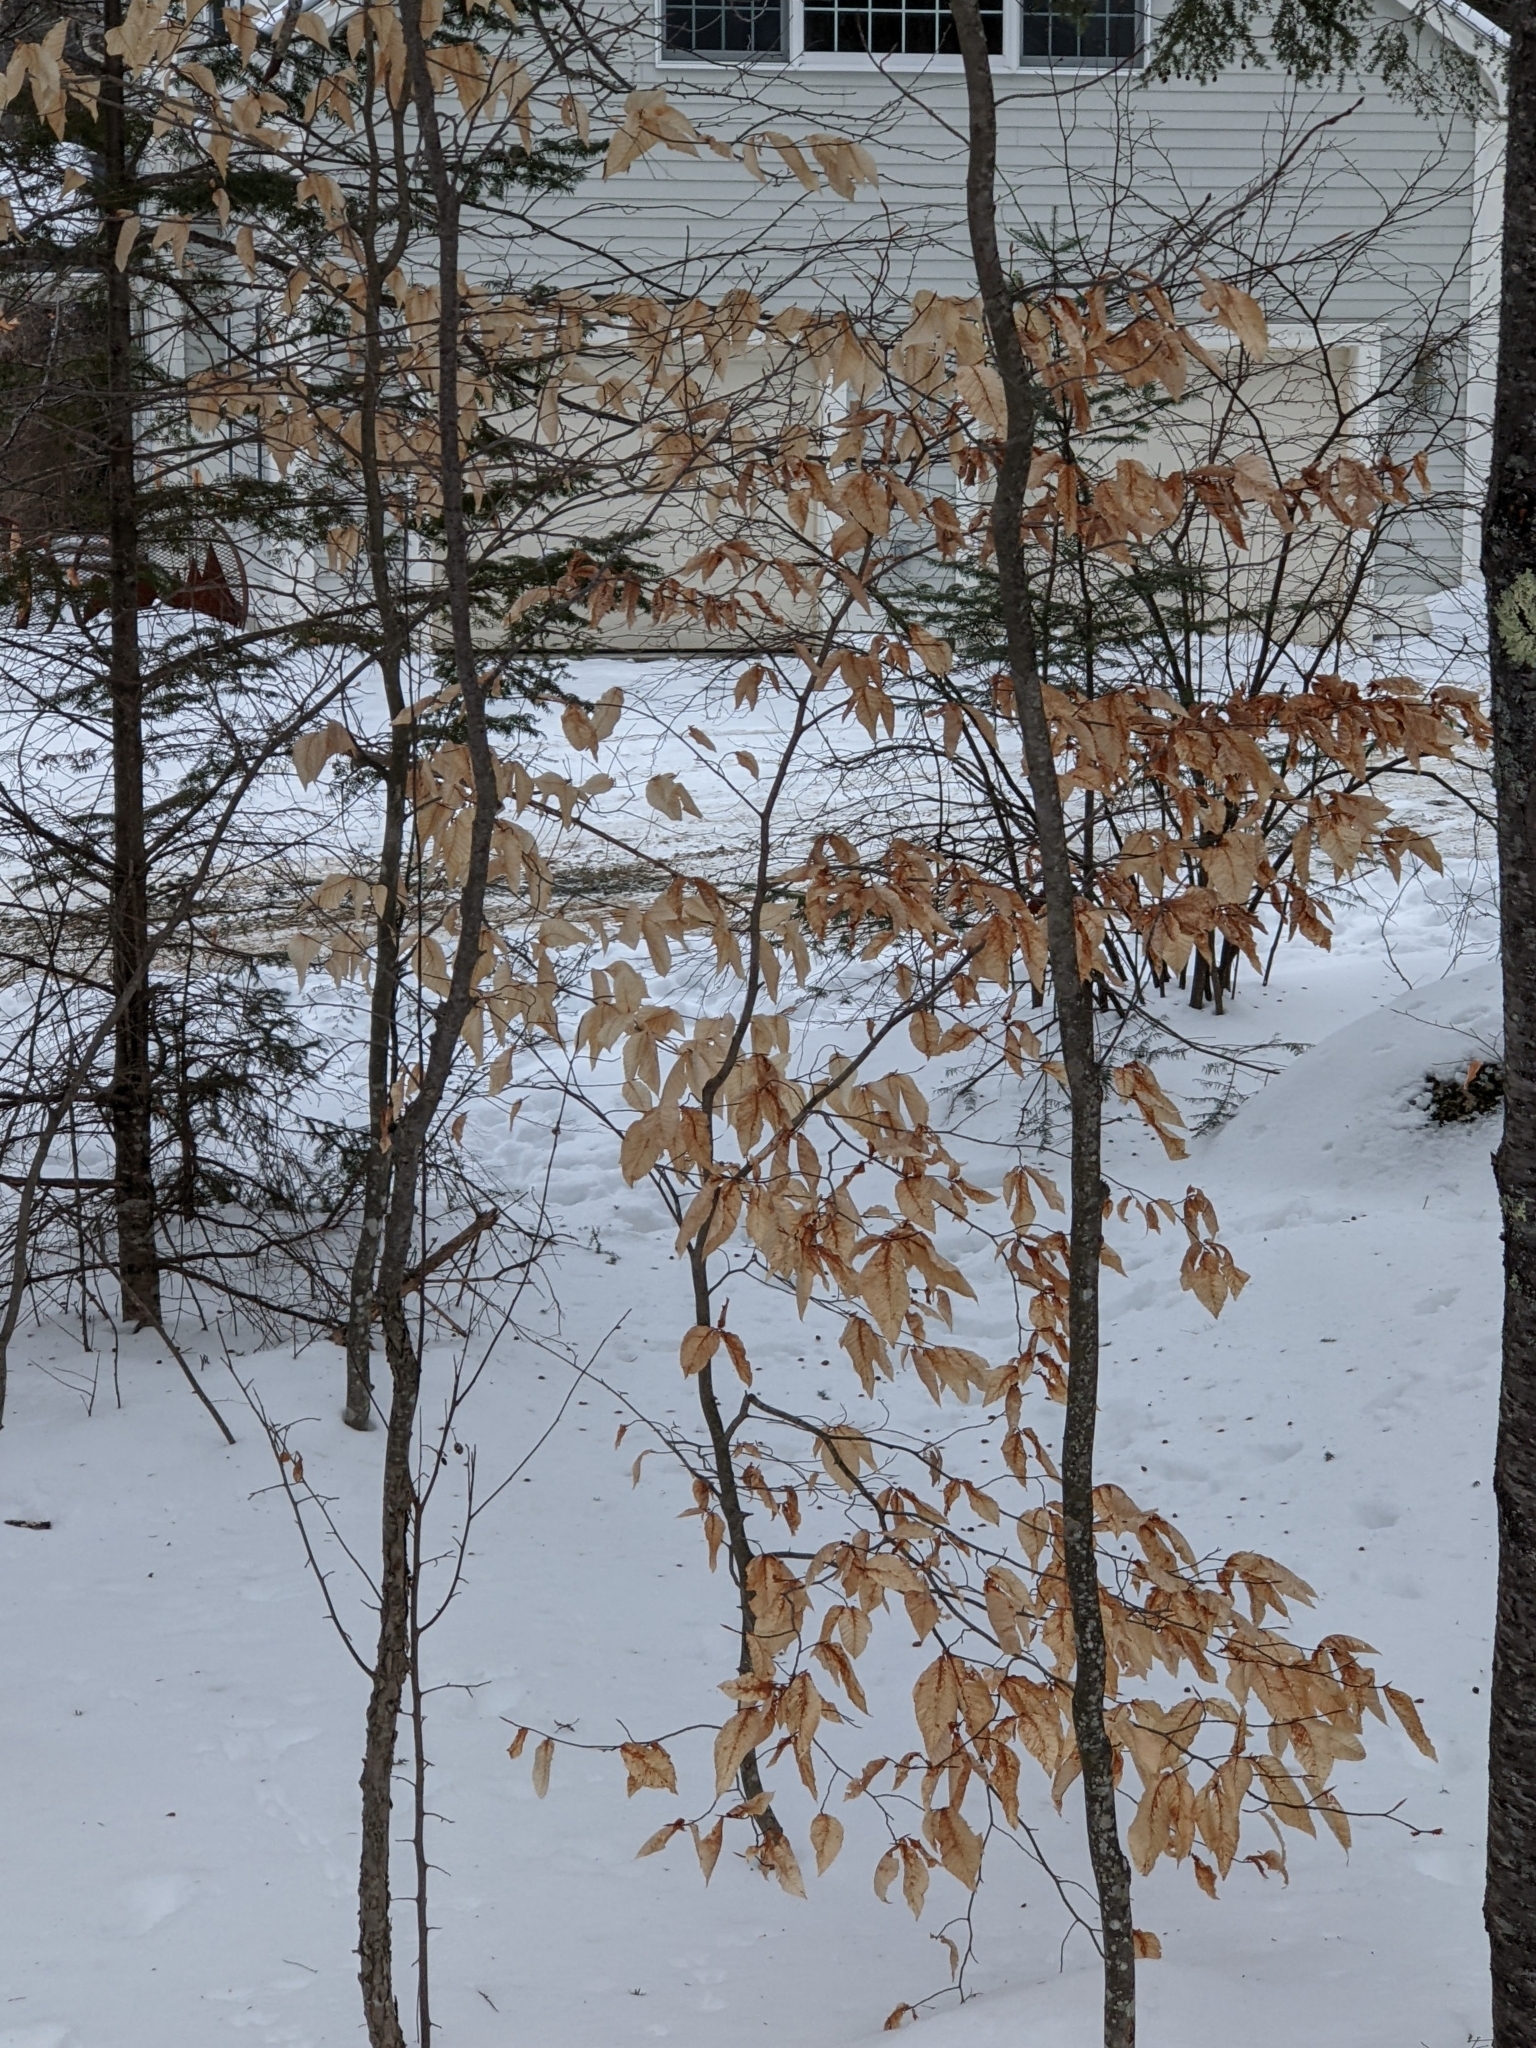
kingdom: Plantae
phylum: Tracheophyta
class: Magnoliopsida
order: Fagales
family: Fagaceae
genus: Fagus
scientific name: Fagus grandifolia
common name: American beech
